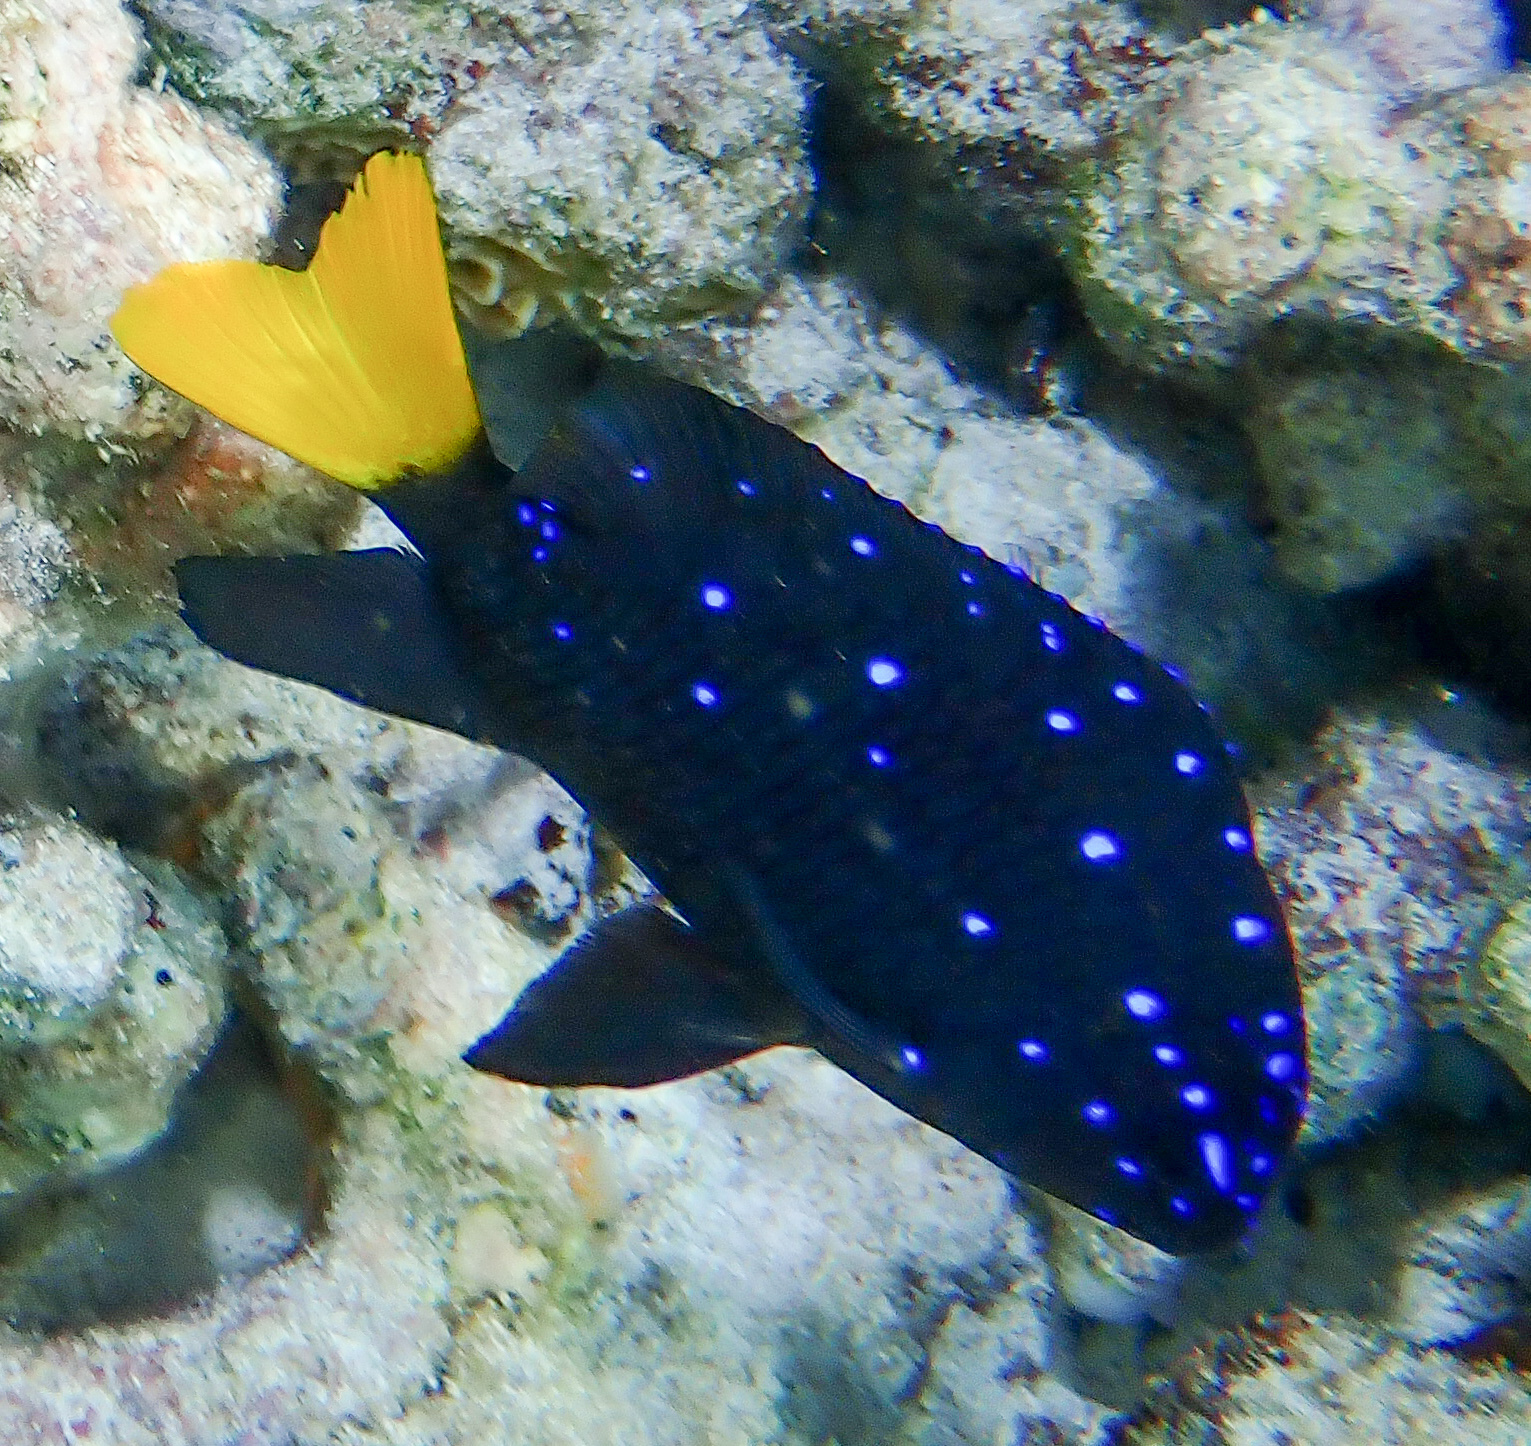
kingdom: Animalia
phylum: Chordata
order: Perciformes
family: Pomacentridae
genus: Microspathodon
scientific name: Microspathodon chrysurus
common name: Yellowtail damselfish
